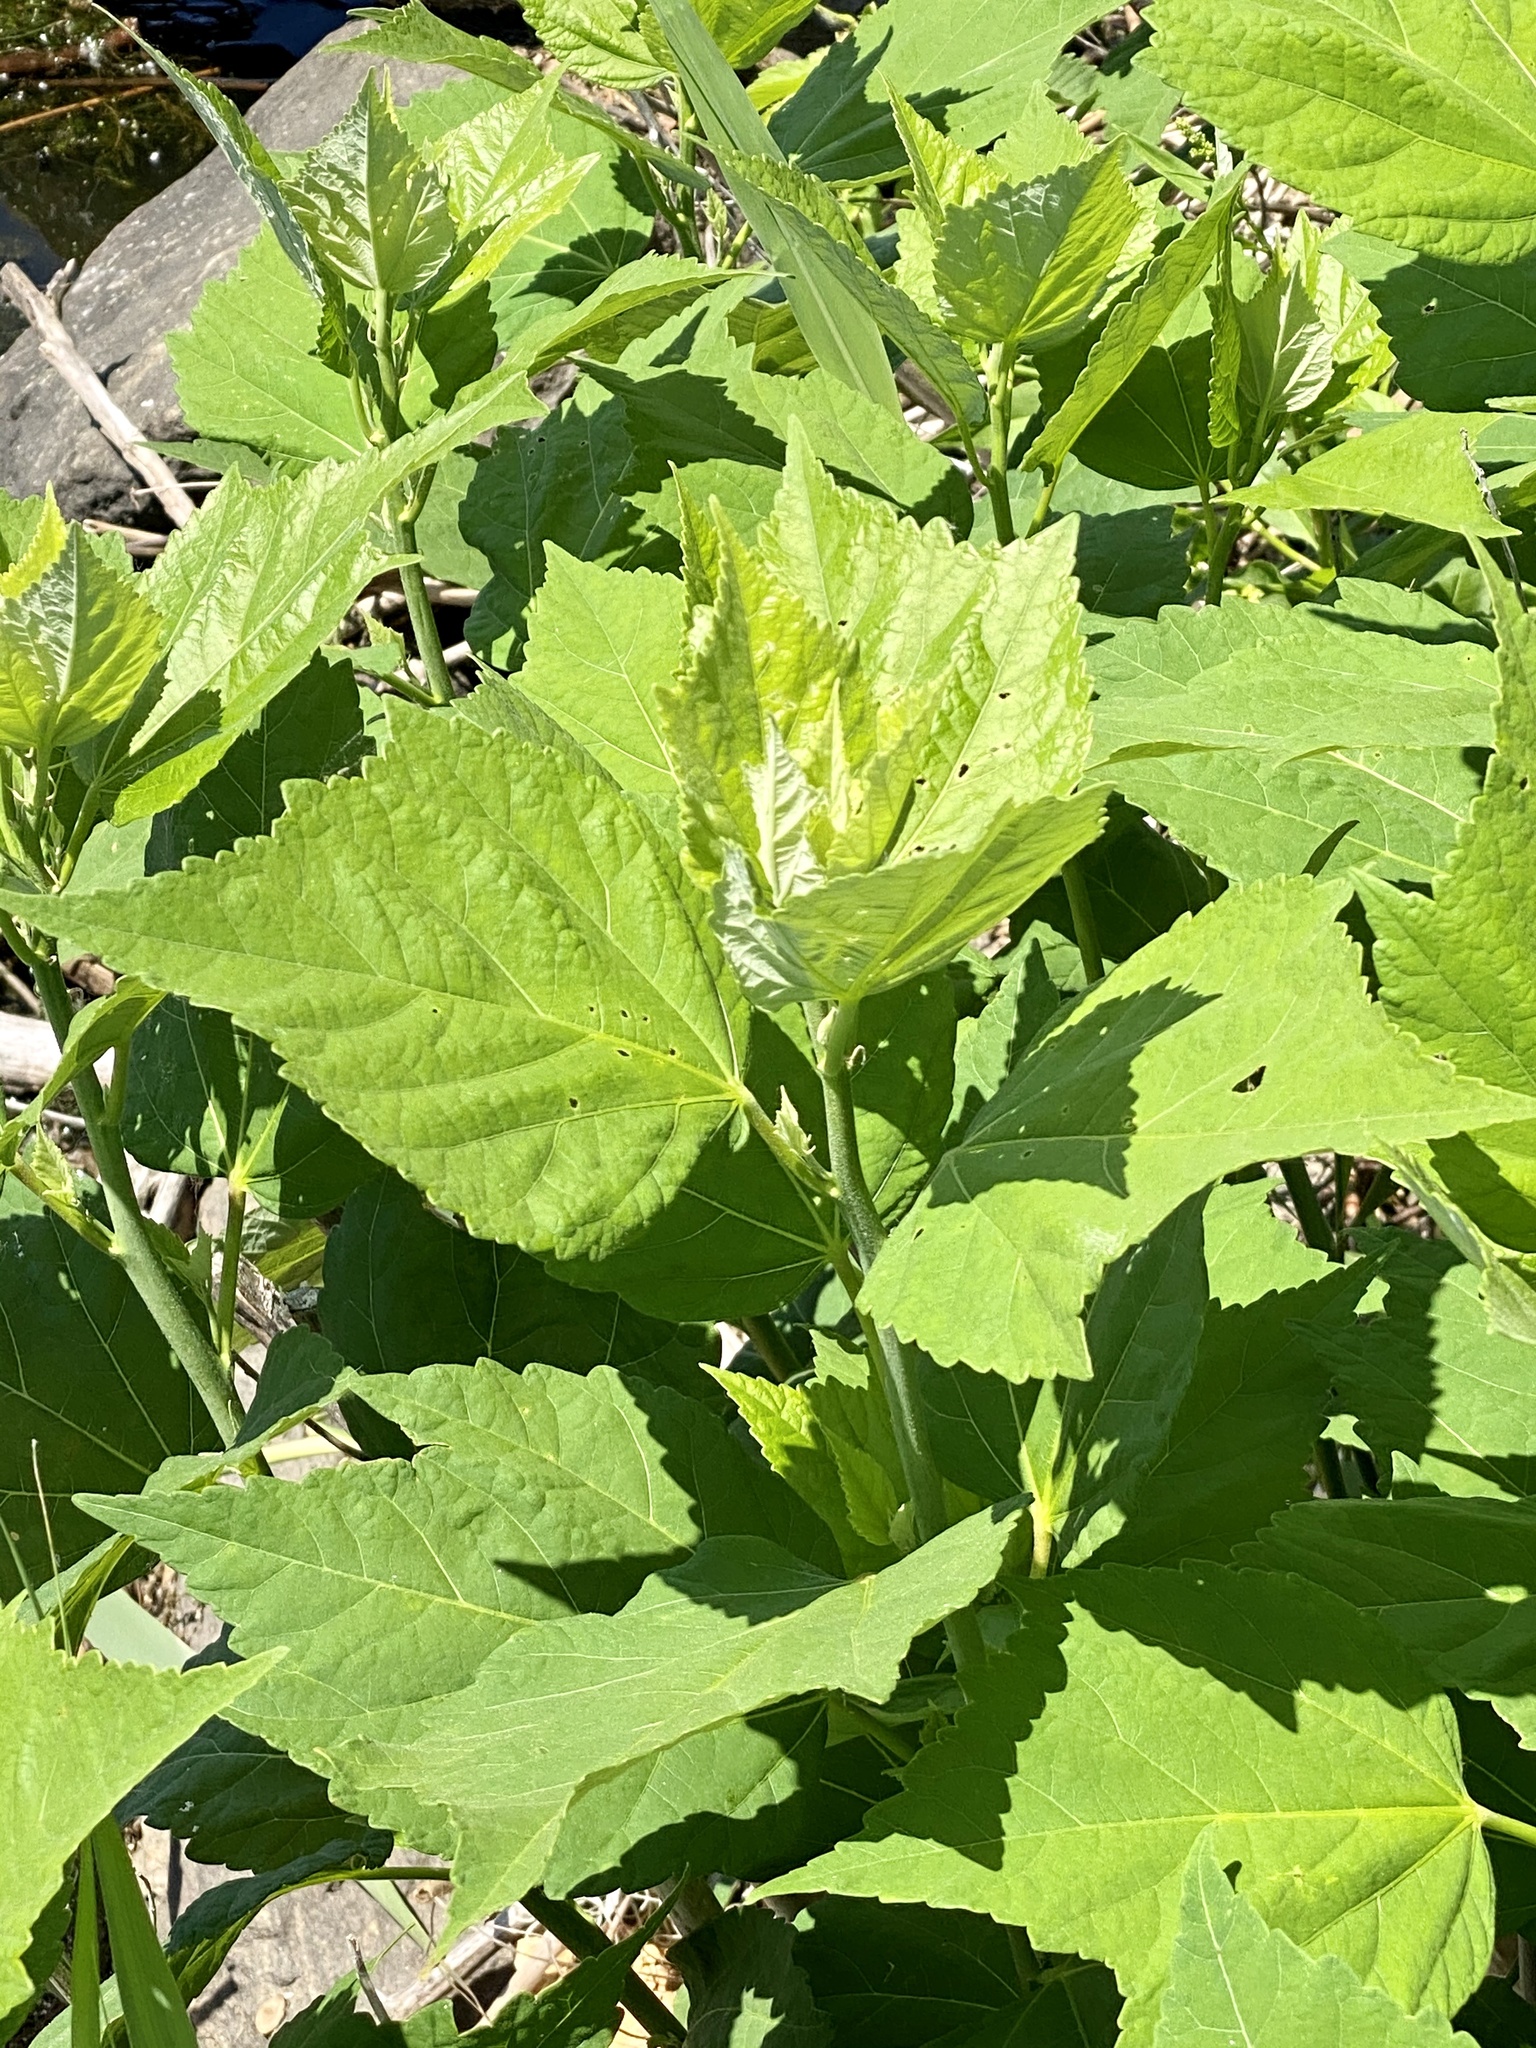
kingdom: Plantae
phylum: Tracheophyta
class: Magnoliopsida
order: Malvales
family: Malvaceae
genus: Hibiscus
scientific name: Hibiscus moscheutos
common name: Common rose-mallow
